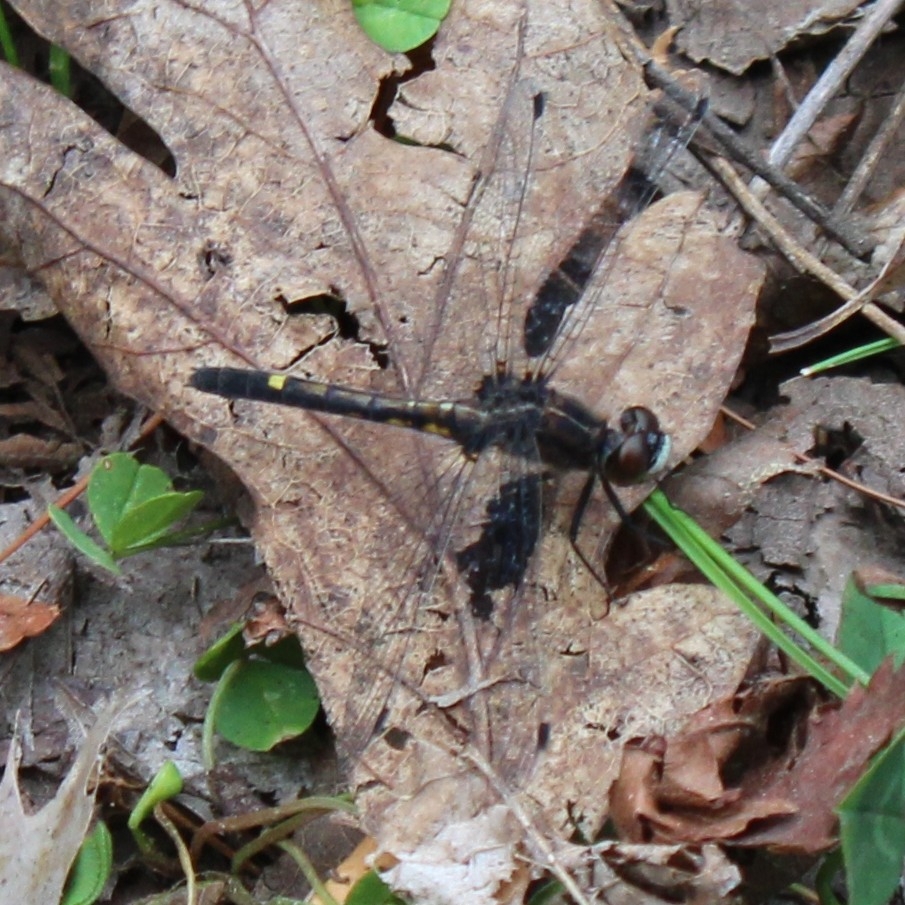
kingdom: Animalia
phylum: Arthropoda
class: Insecta
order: Odonata
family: Libellulidae
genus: Leucorrhinia
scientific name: Leucorrhinia intacta
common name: Dot-tailed whiteface
